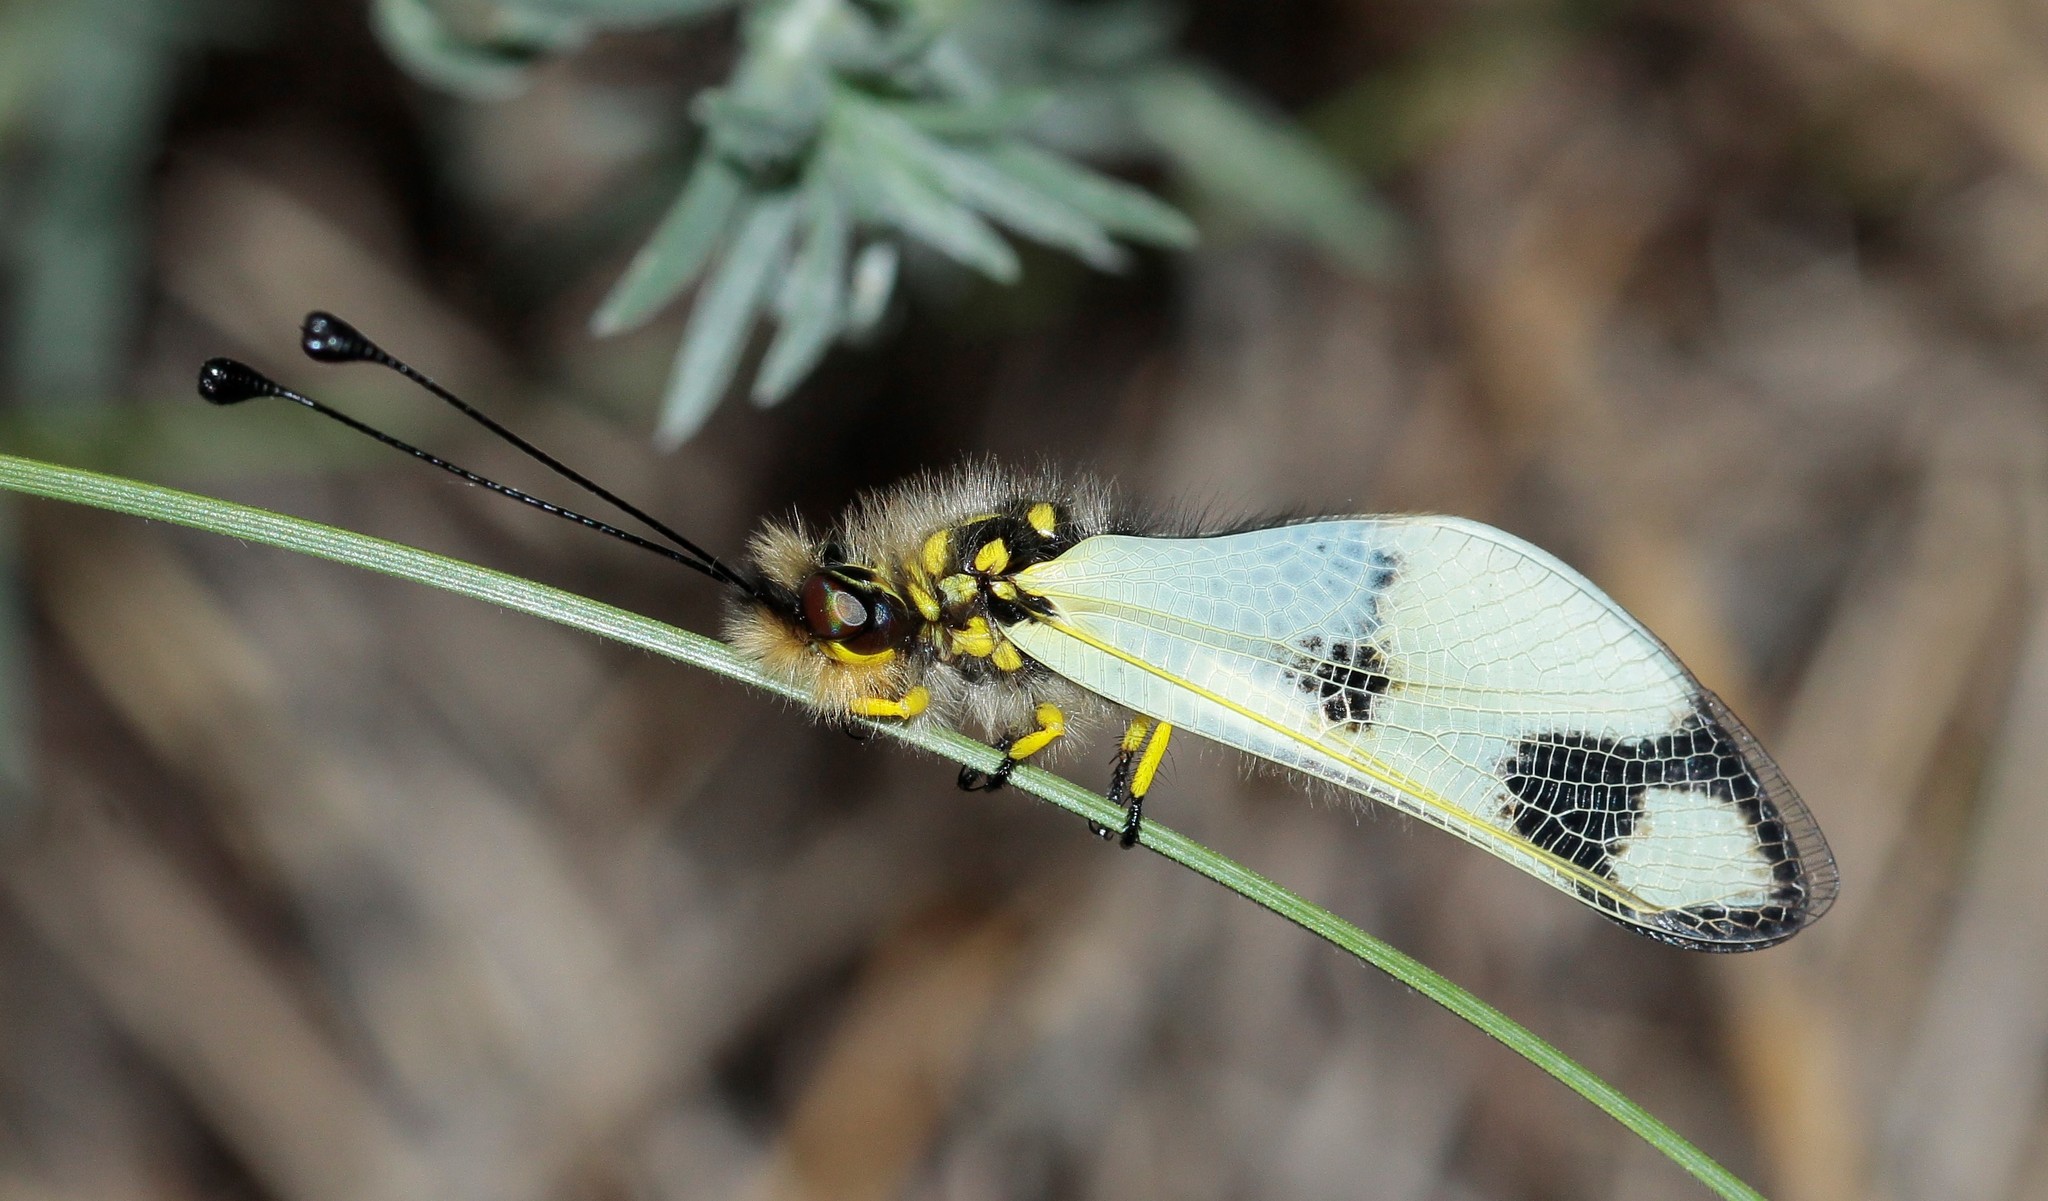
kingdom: Animalia
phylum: Arthropoda
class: Insecta
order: Neuroptera
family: Ascalaphidae
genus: Libelloides
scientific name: Libelloides macaronius
